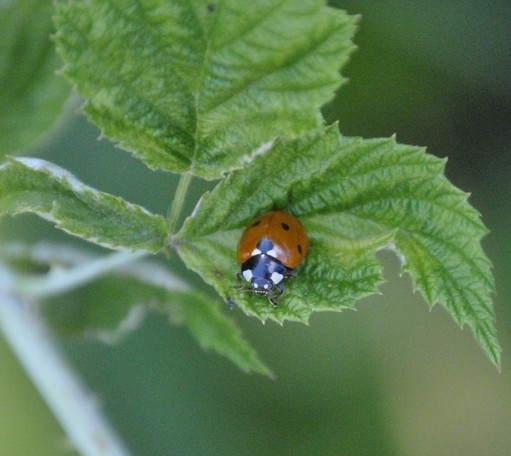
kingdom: Animalia
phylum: Arthropoda
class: Insecta
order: Coleoptera
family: Coccinellidae
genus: Coccinella
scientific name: Coccinella septempunctata
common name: Sevenspotted lady beetle
